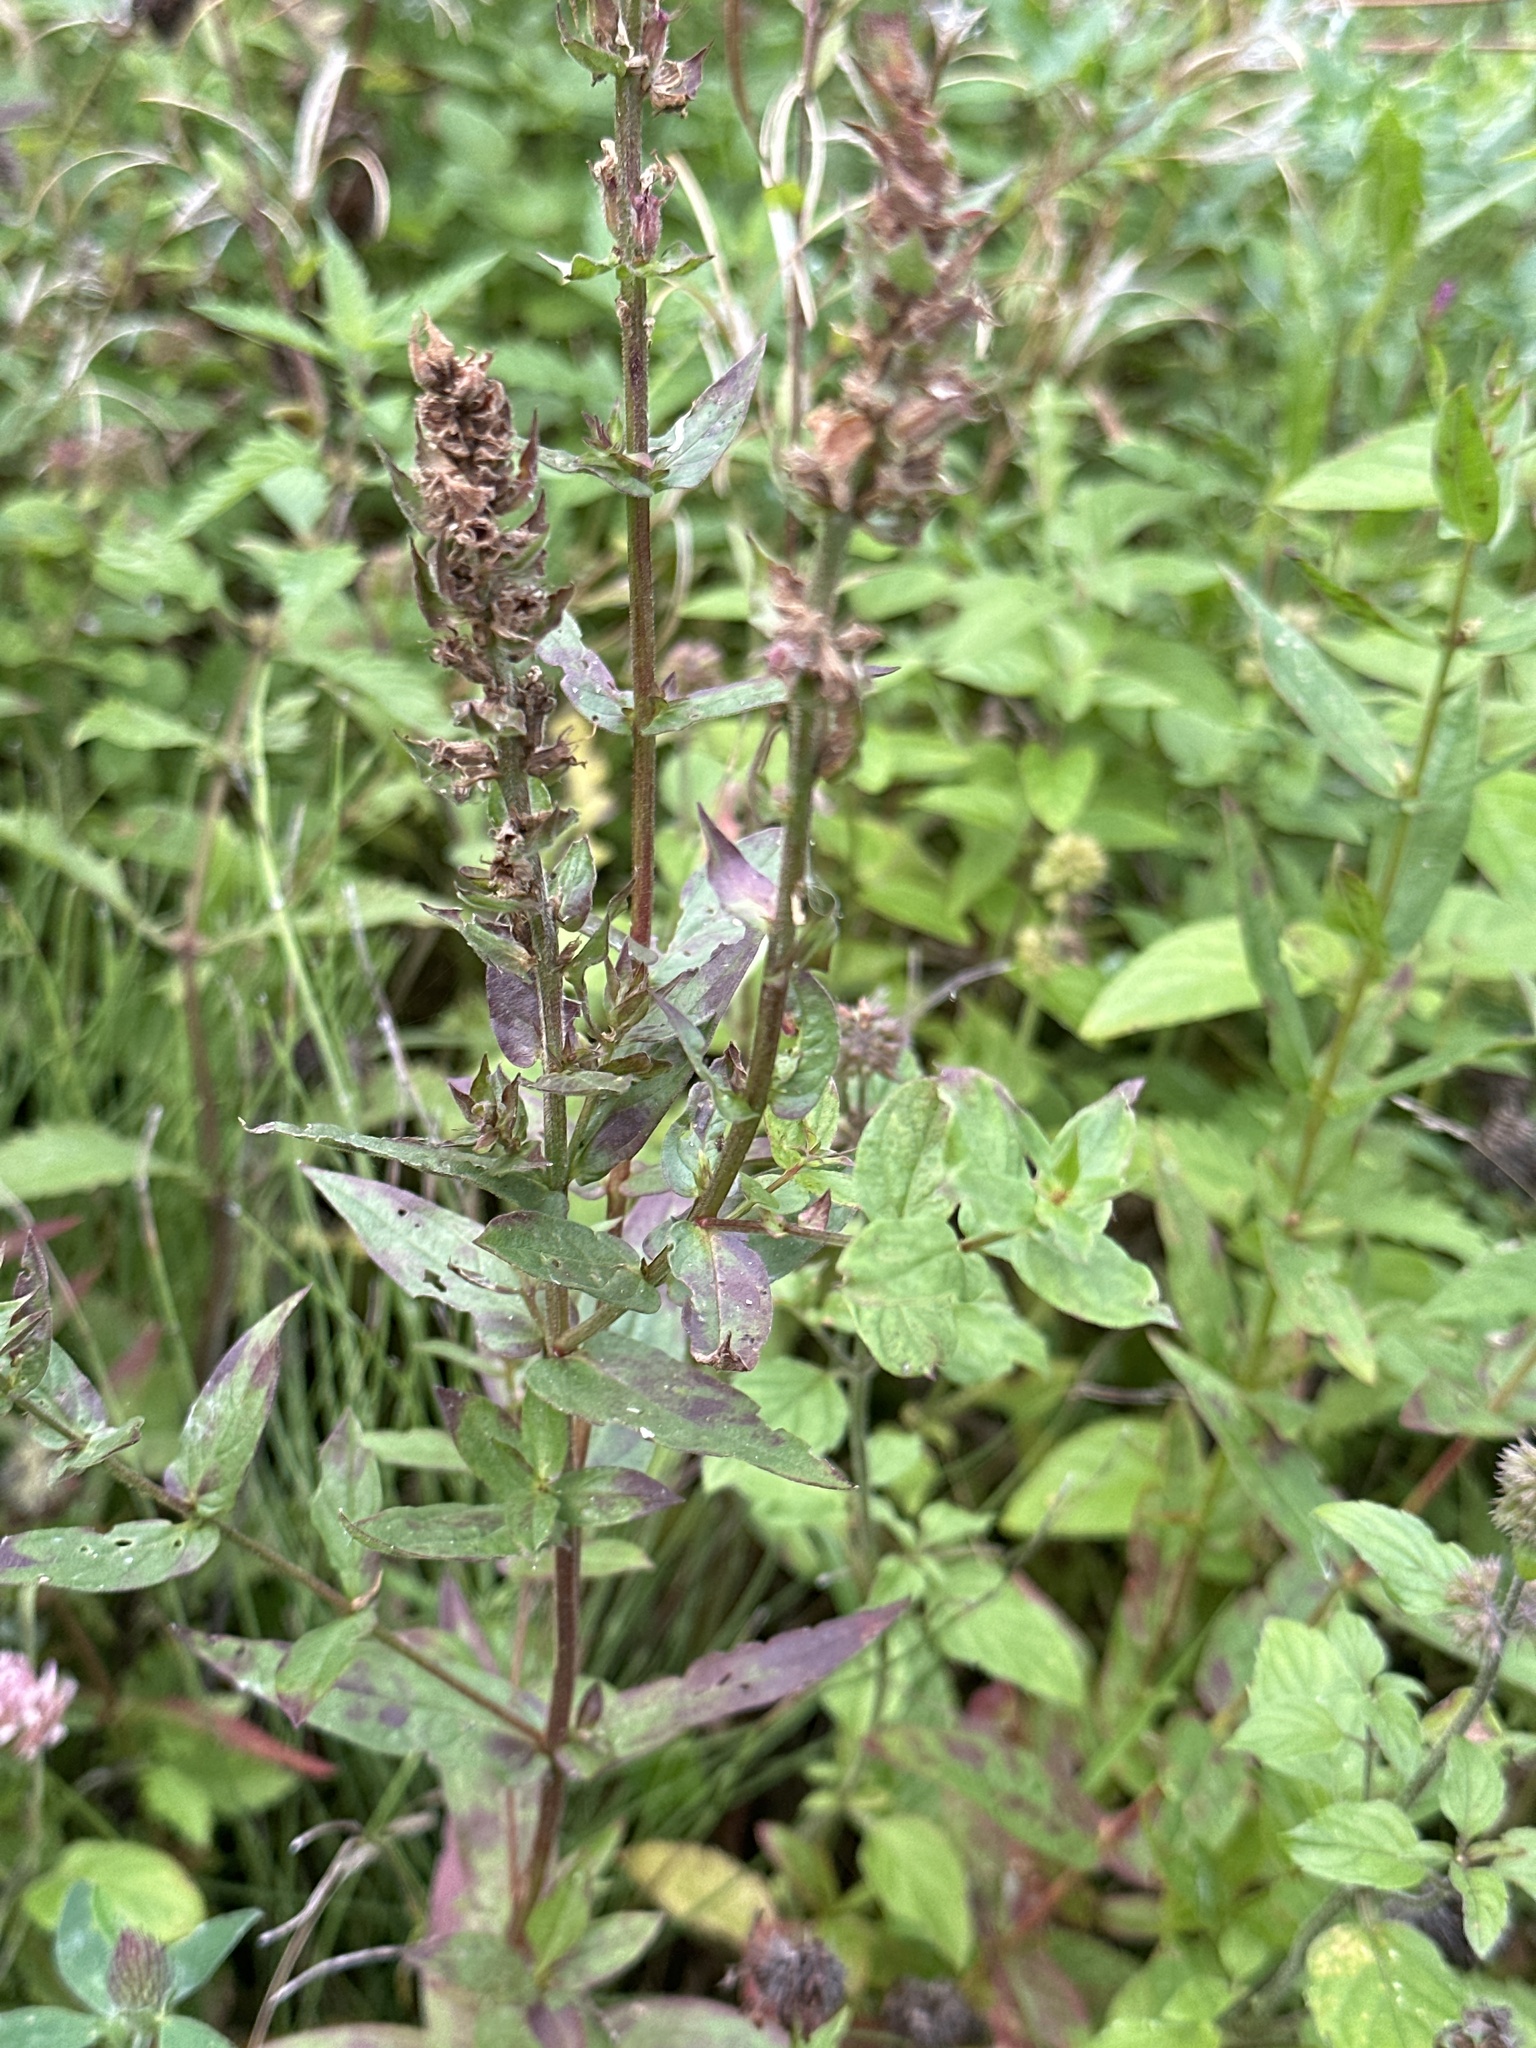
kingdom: Plantae
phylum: Tracheophyta
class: Magnoliopsida
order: Myrtales
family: Lythraceae
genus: Lythrum
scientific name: Lythrum salicaria
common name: Purple loosestrife
